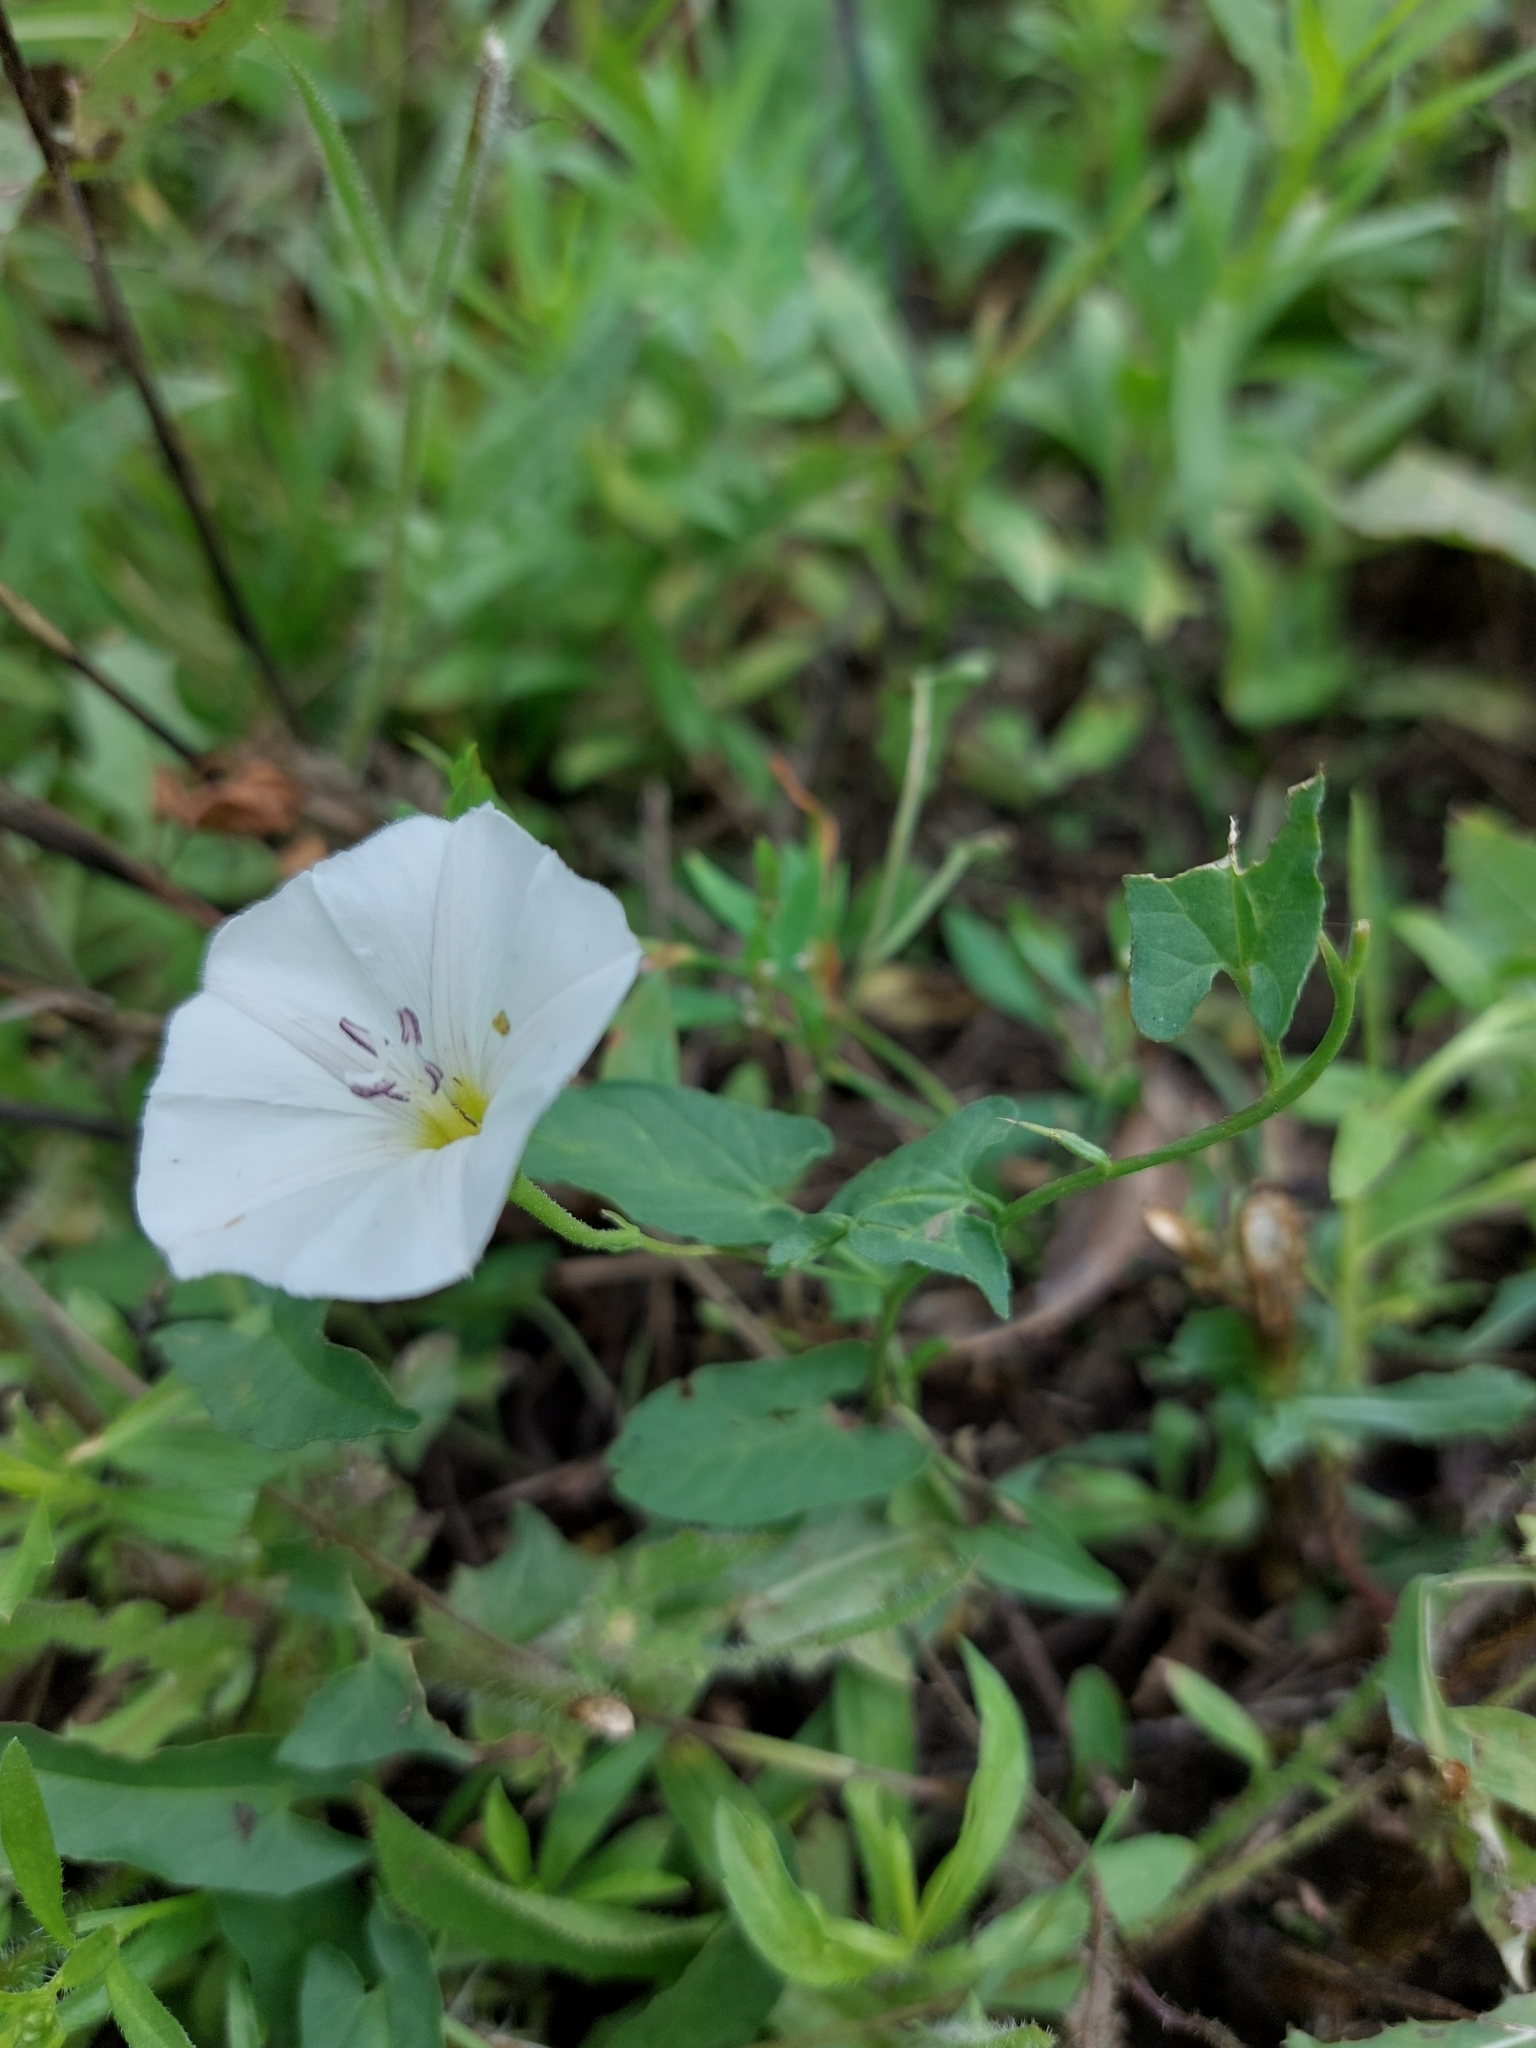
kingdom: Plantae
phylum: Tracheophyta
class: Magnoliopsida
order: Solanales
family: Convolvulaceae
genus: Convolvulus
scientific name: Convolvulus arvensis
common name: Field bindweed
